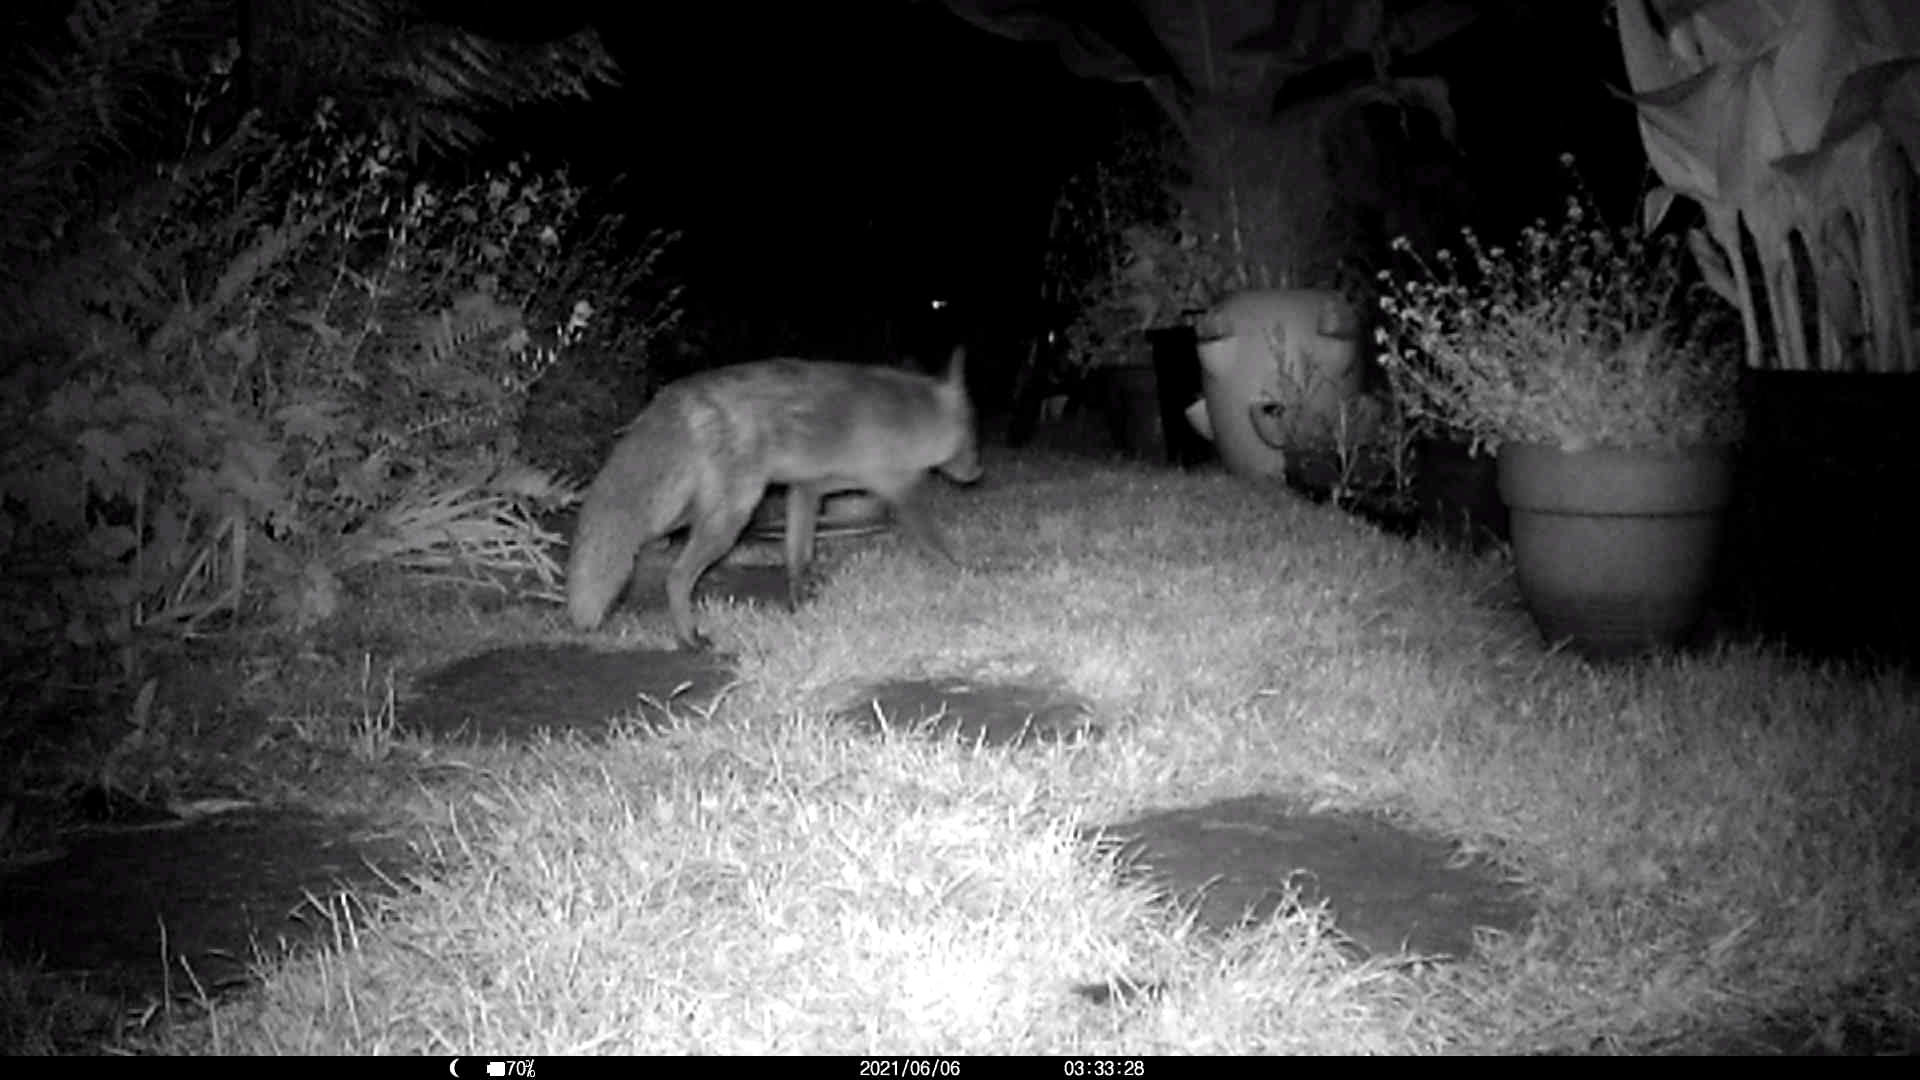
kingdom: Animalia
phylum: Chordata
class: Mammalia
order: Carnivora
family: Canidae
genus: Vulpes
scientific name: Vulpes vulpes
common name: Red fox
